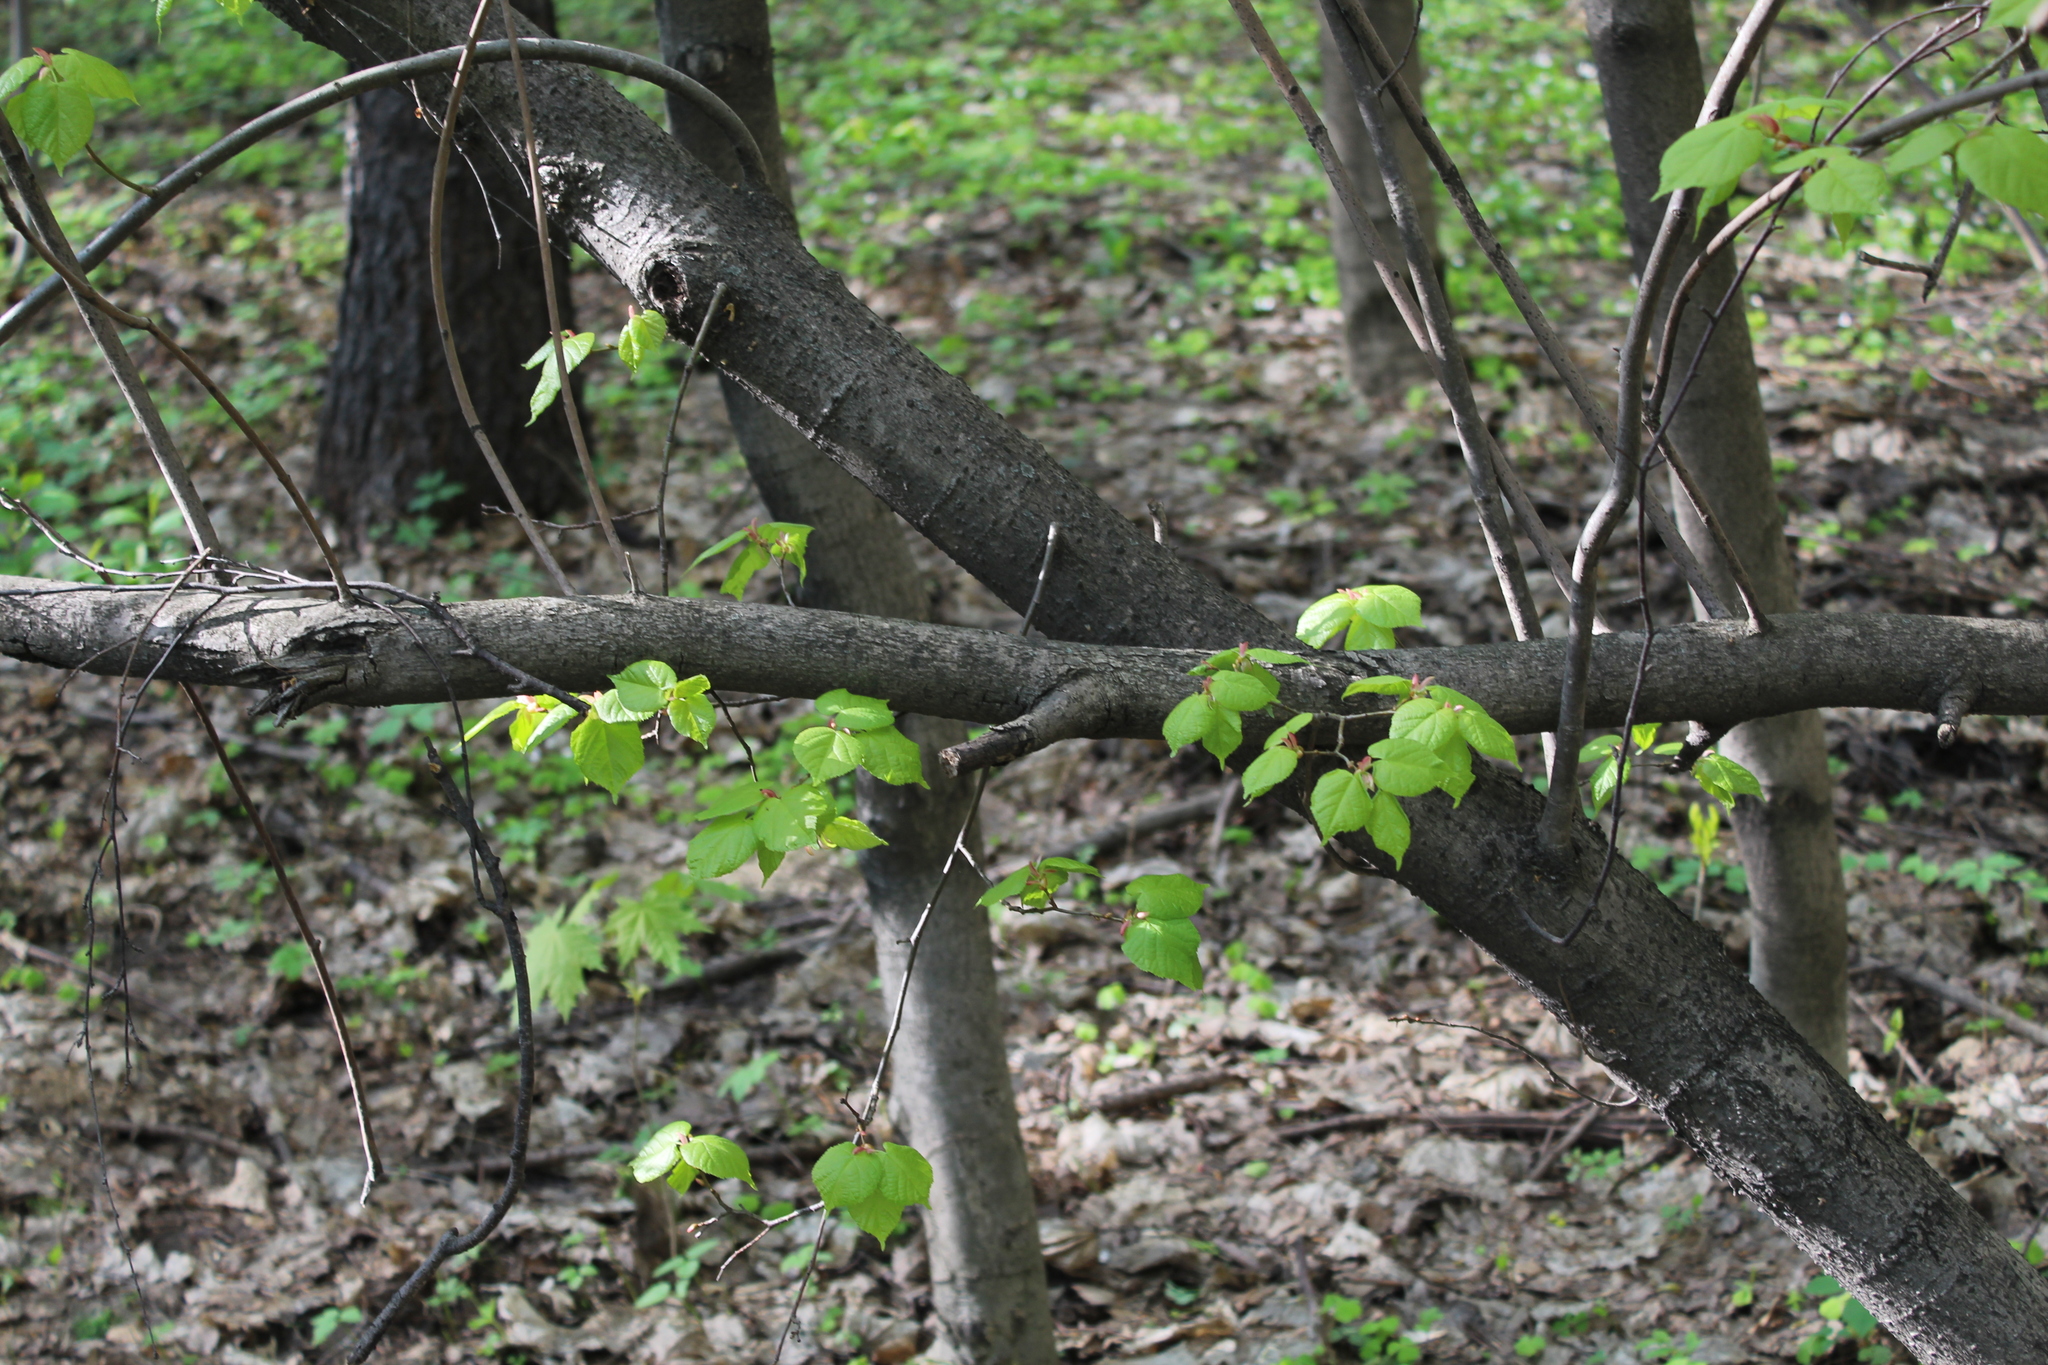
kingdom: Plantae
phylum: Tracheophyta
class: Magnoliopsida
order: Malvales
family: Malvaceae
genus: Tilia
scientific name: Tilia cordata
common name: Small-leaved lime
